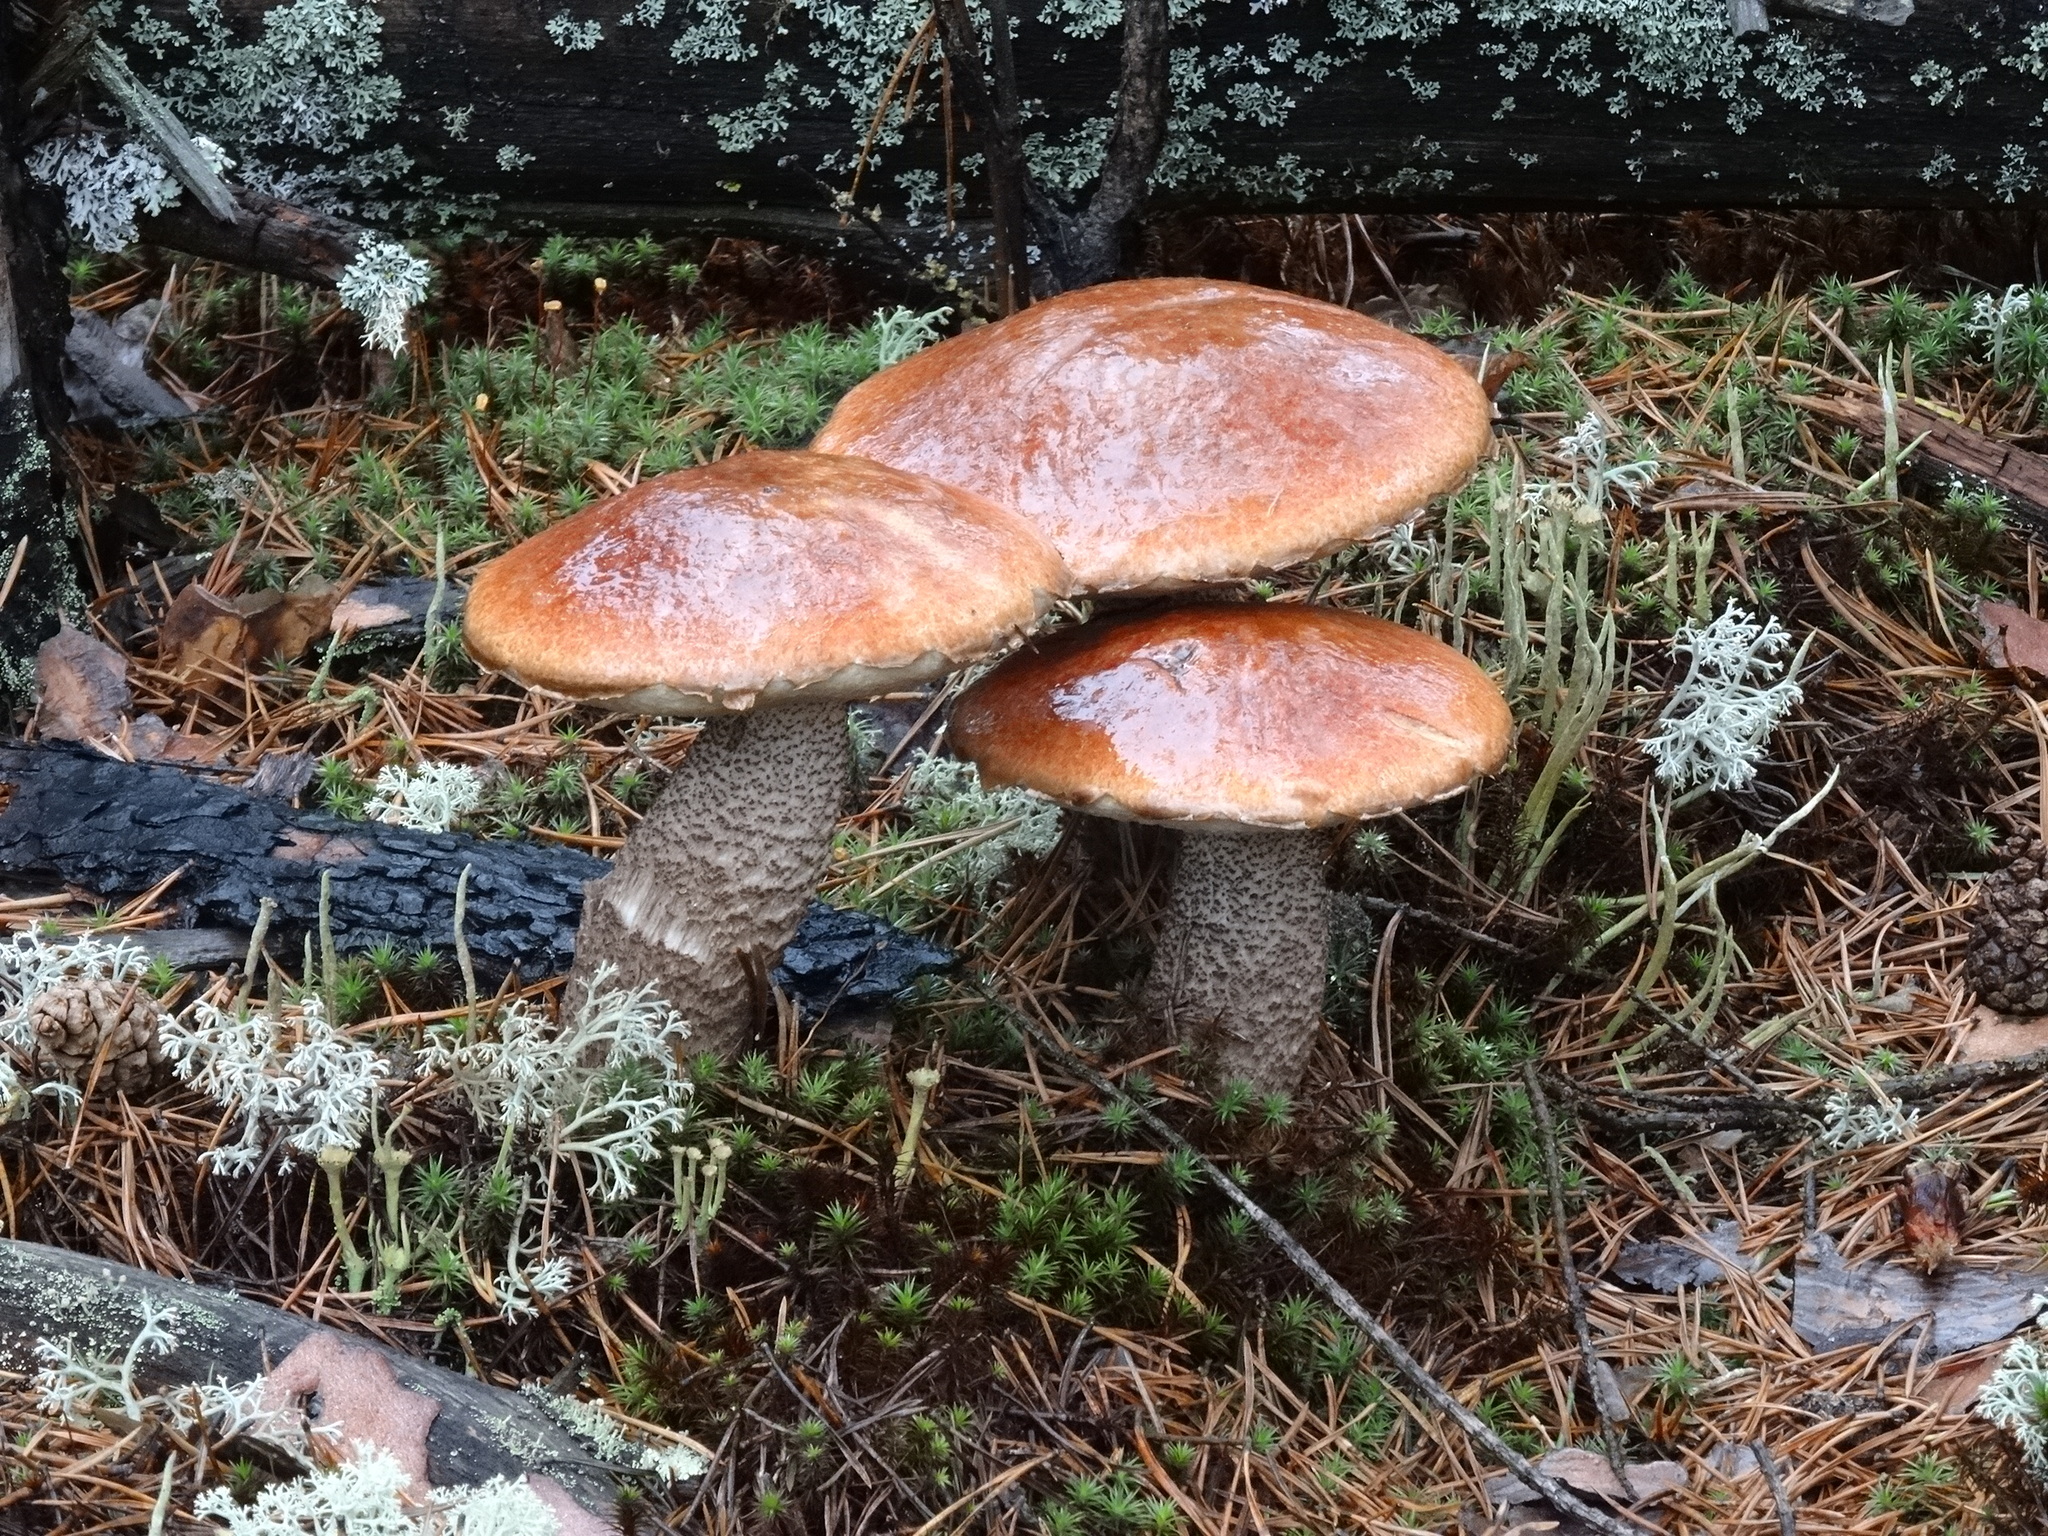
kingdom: Fungi
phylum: Basidiomycota
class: Agaricomycetes
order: Boletales
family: Boletaceae
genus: Leccinum
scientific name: Leccinum versipelle
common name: Orange birch bolete
